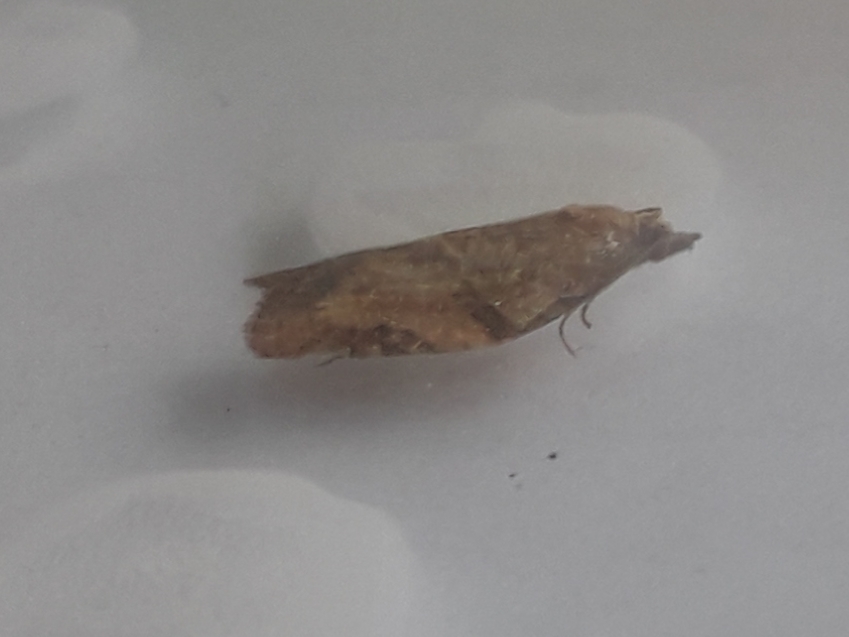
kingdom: Animalia
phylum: Arthropoda
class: Insecta
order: Lepidoptera
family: Tortricidae
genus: Epiphyas
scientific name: Epiphyas postvittana
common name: Light brown apple moth
